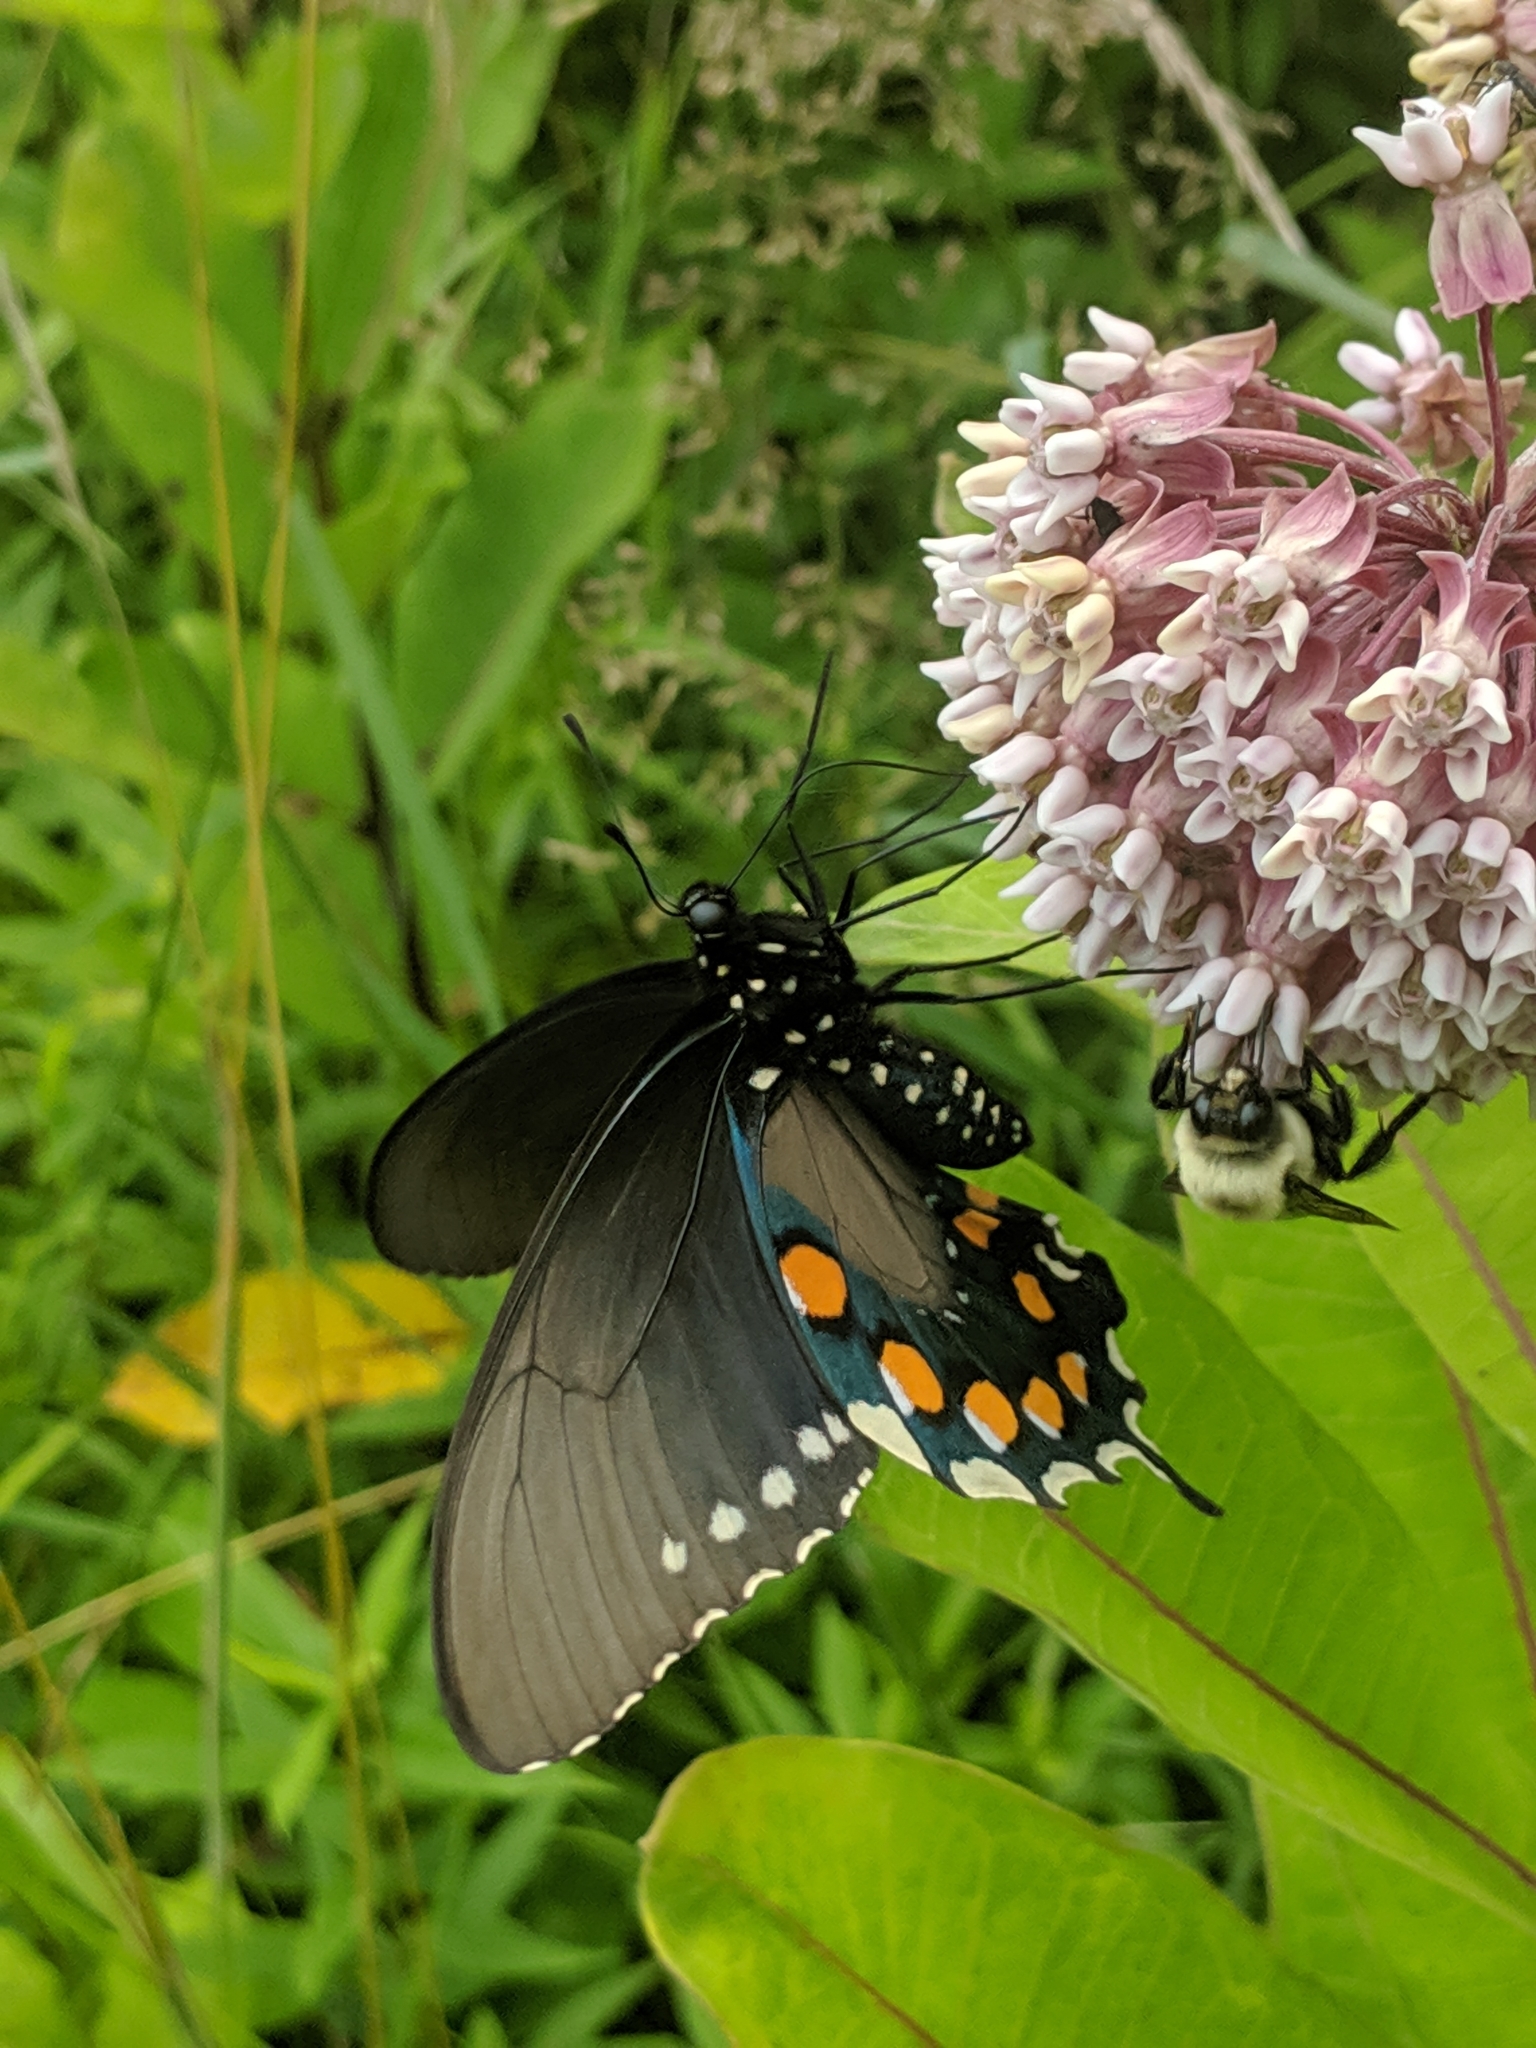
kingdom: Animalia
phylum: Arthropoda
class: Insecta
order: Lepidoptera
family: Papilionidae
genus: Battus
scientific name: Battus philenor
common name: Pipevine swallowtail
